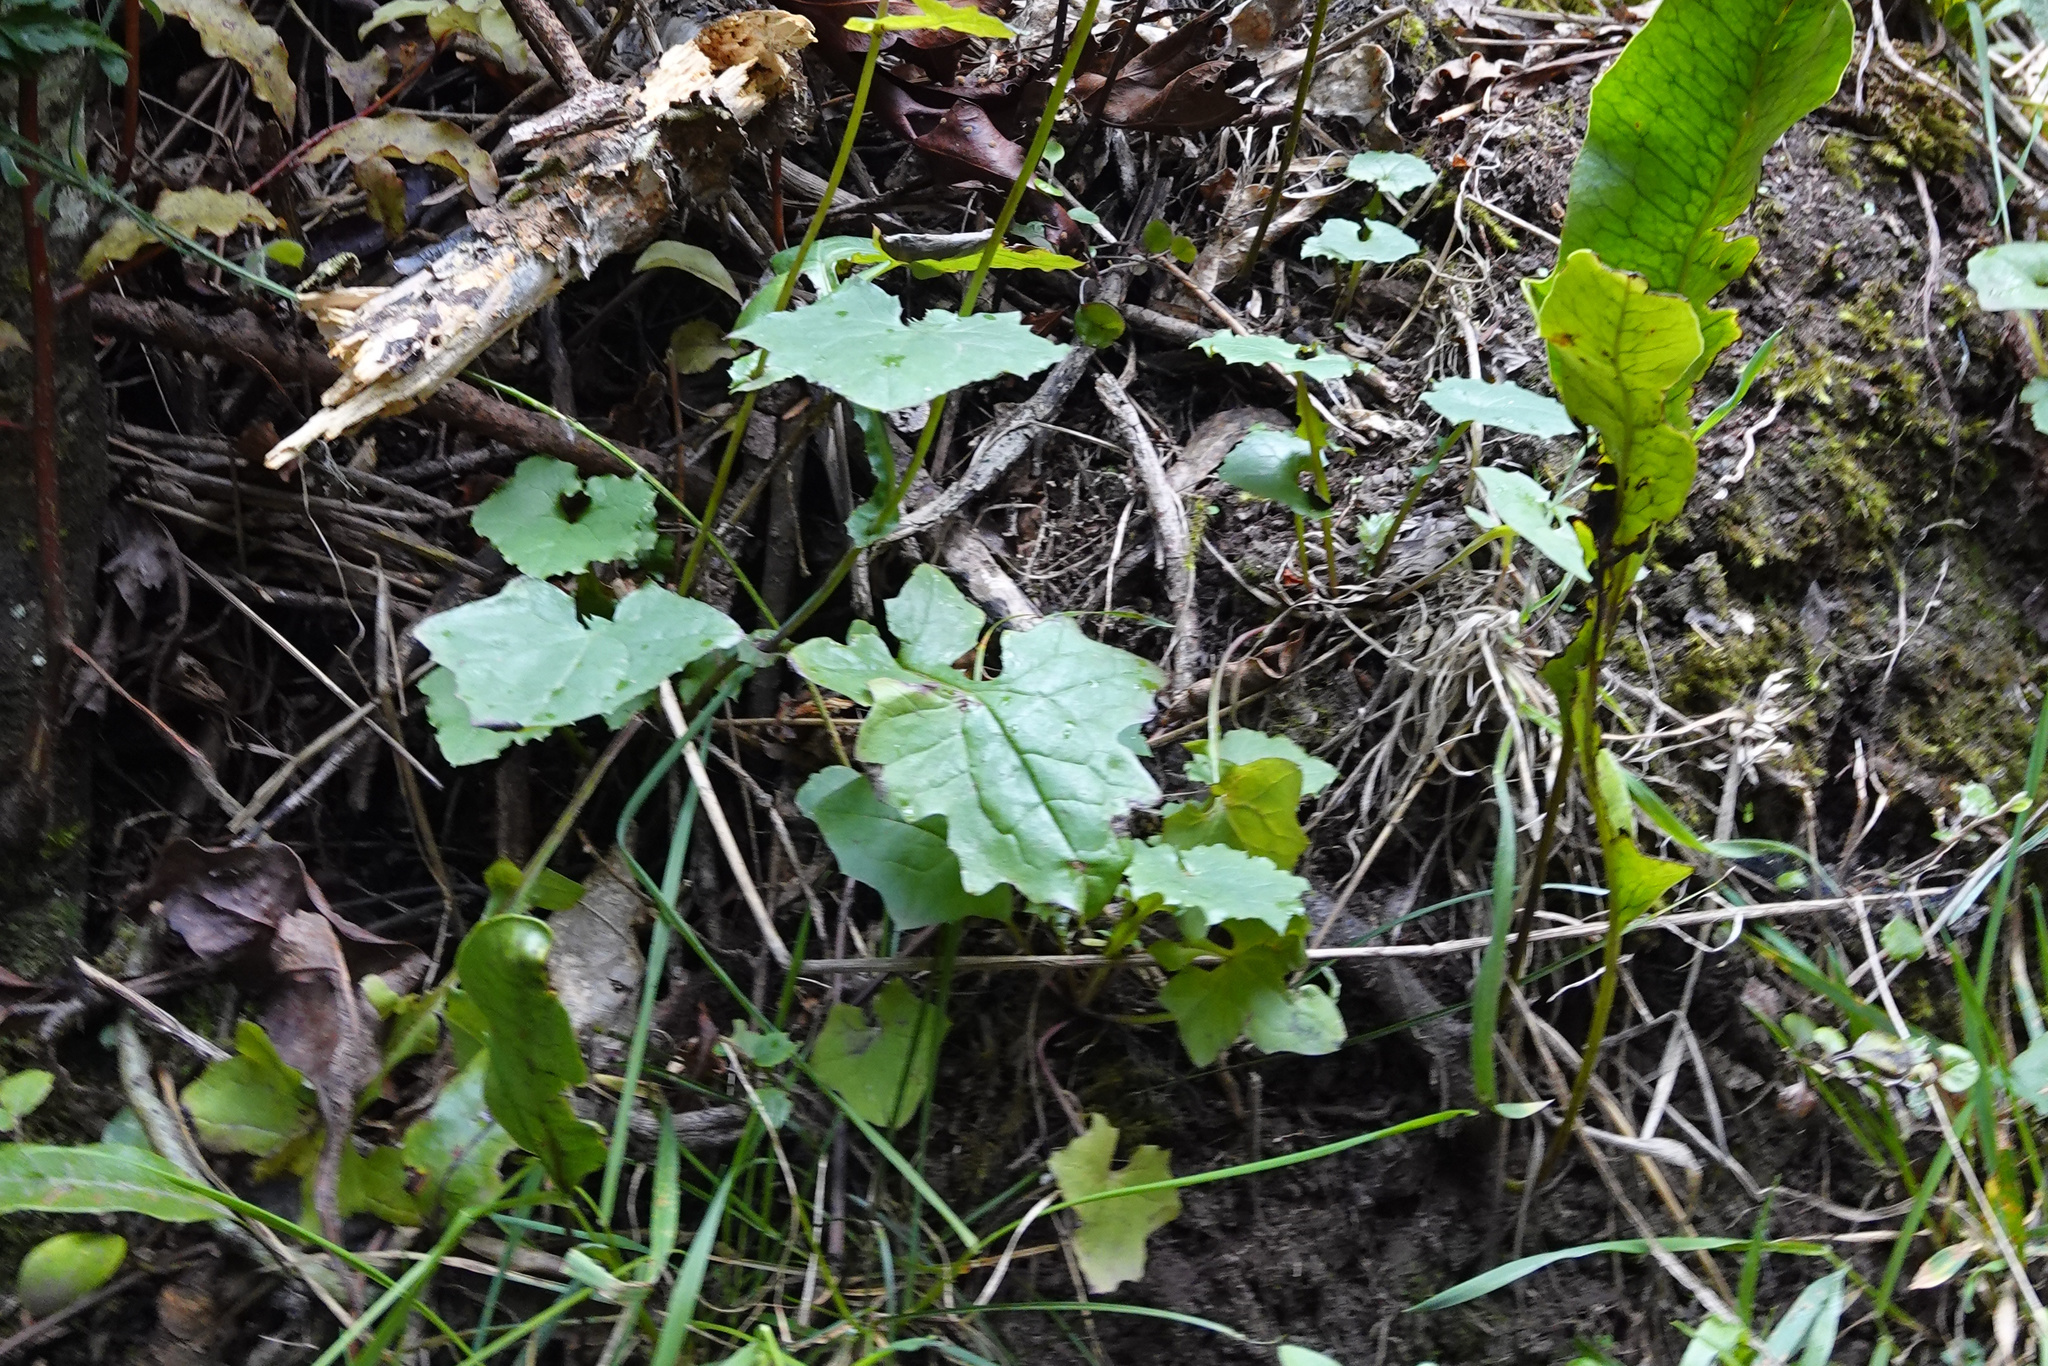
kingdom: Plantae
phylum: Tracheophyta
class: Magnoliopsida
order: Asterales
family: Asteraceae
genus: Mycelis
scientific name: Mycelis muralis
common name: Wall lettuce
